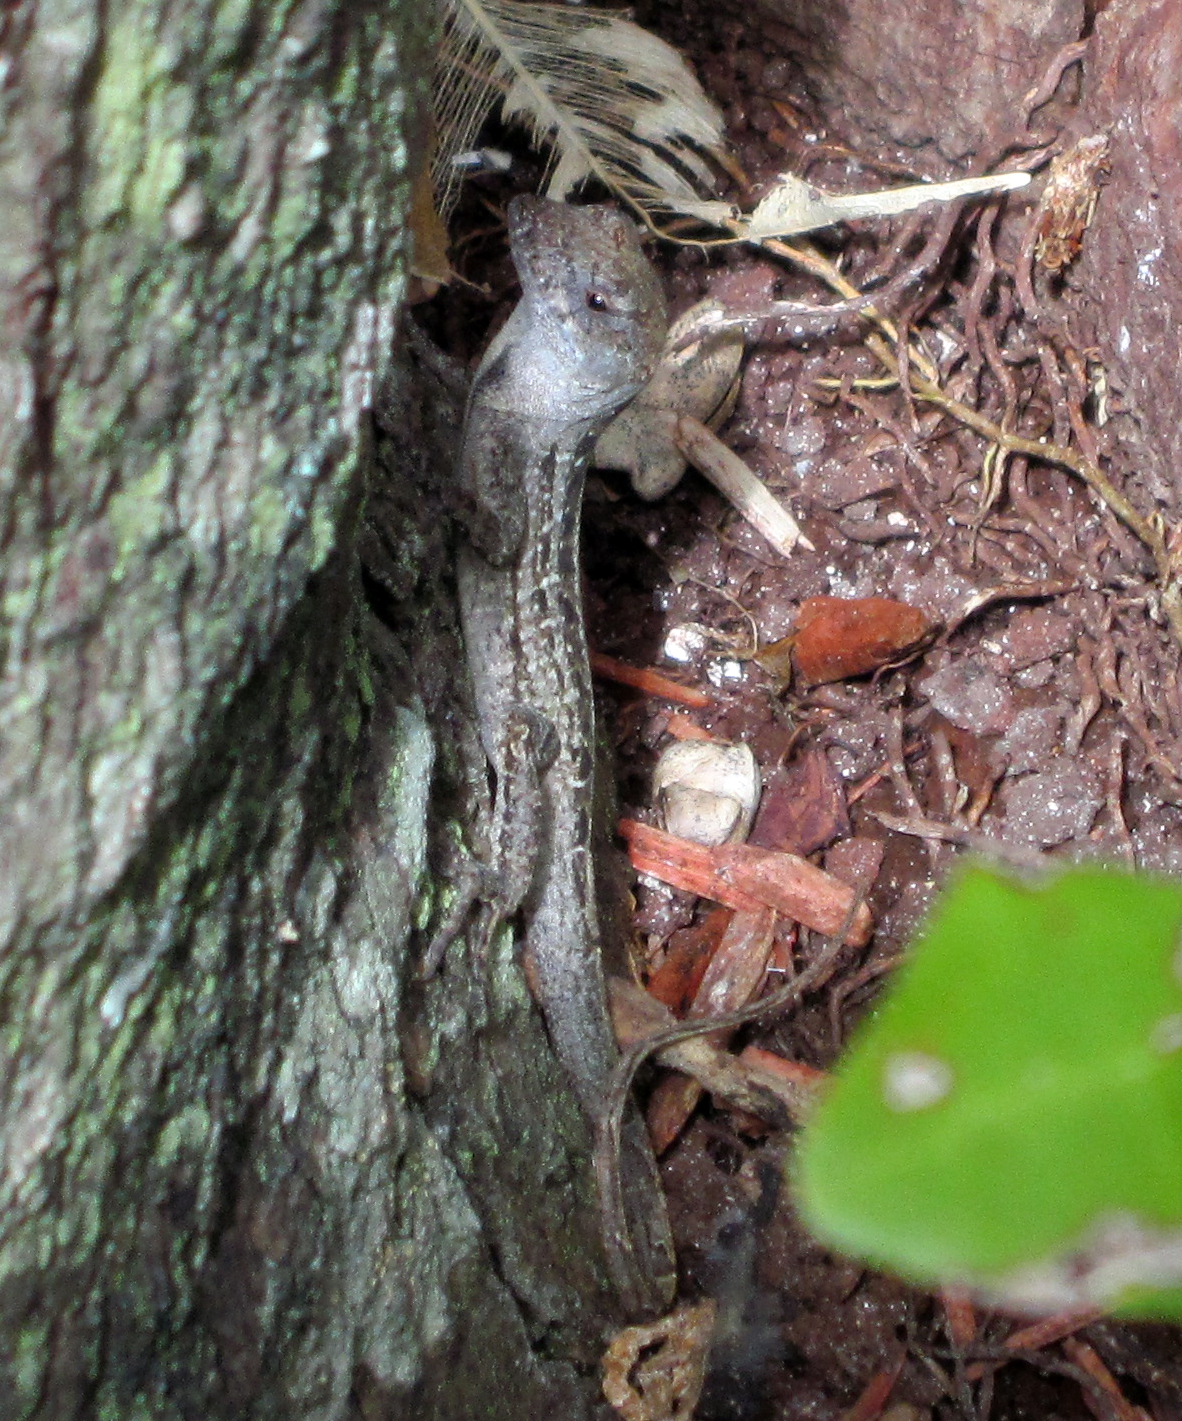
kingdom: Animalia
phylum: Chordata
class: Squamata
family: Dactyloidae
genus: Anolis
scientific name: Anolis sagrei
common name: Brown anole
